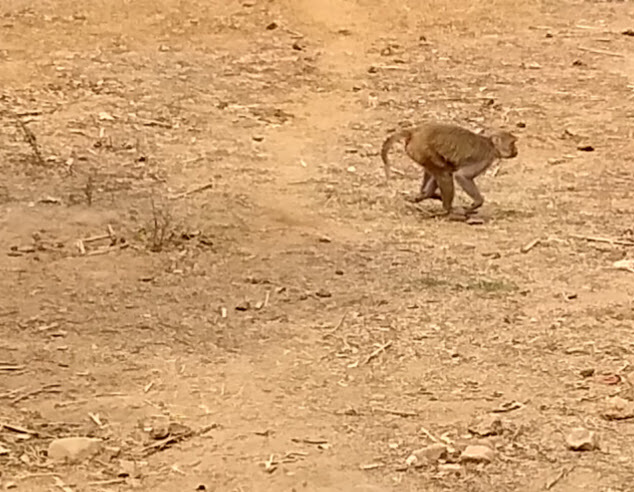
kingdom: Animalia
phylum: Chordata
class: Mammalia
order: Primates
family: Cercopithecidae
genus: Macaca
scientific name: Macaca mulatta
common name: Rhesus monkey
